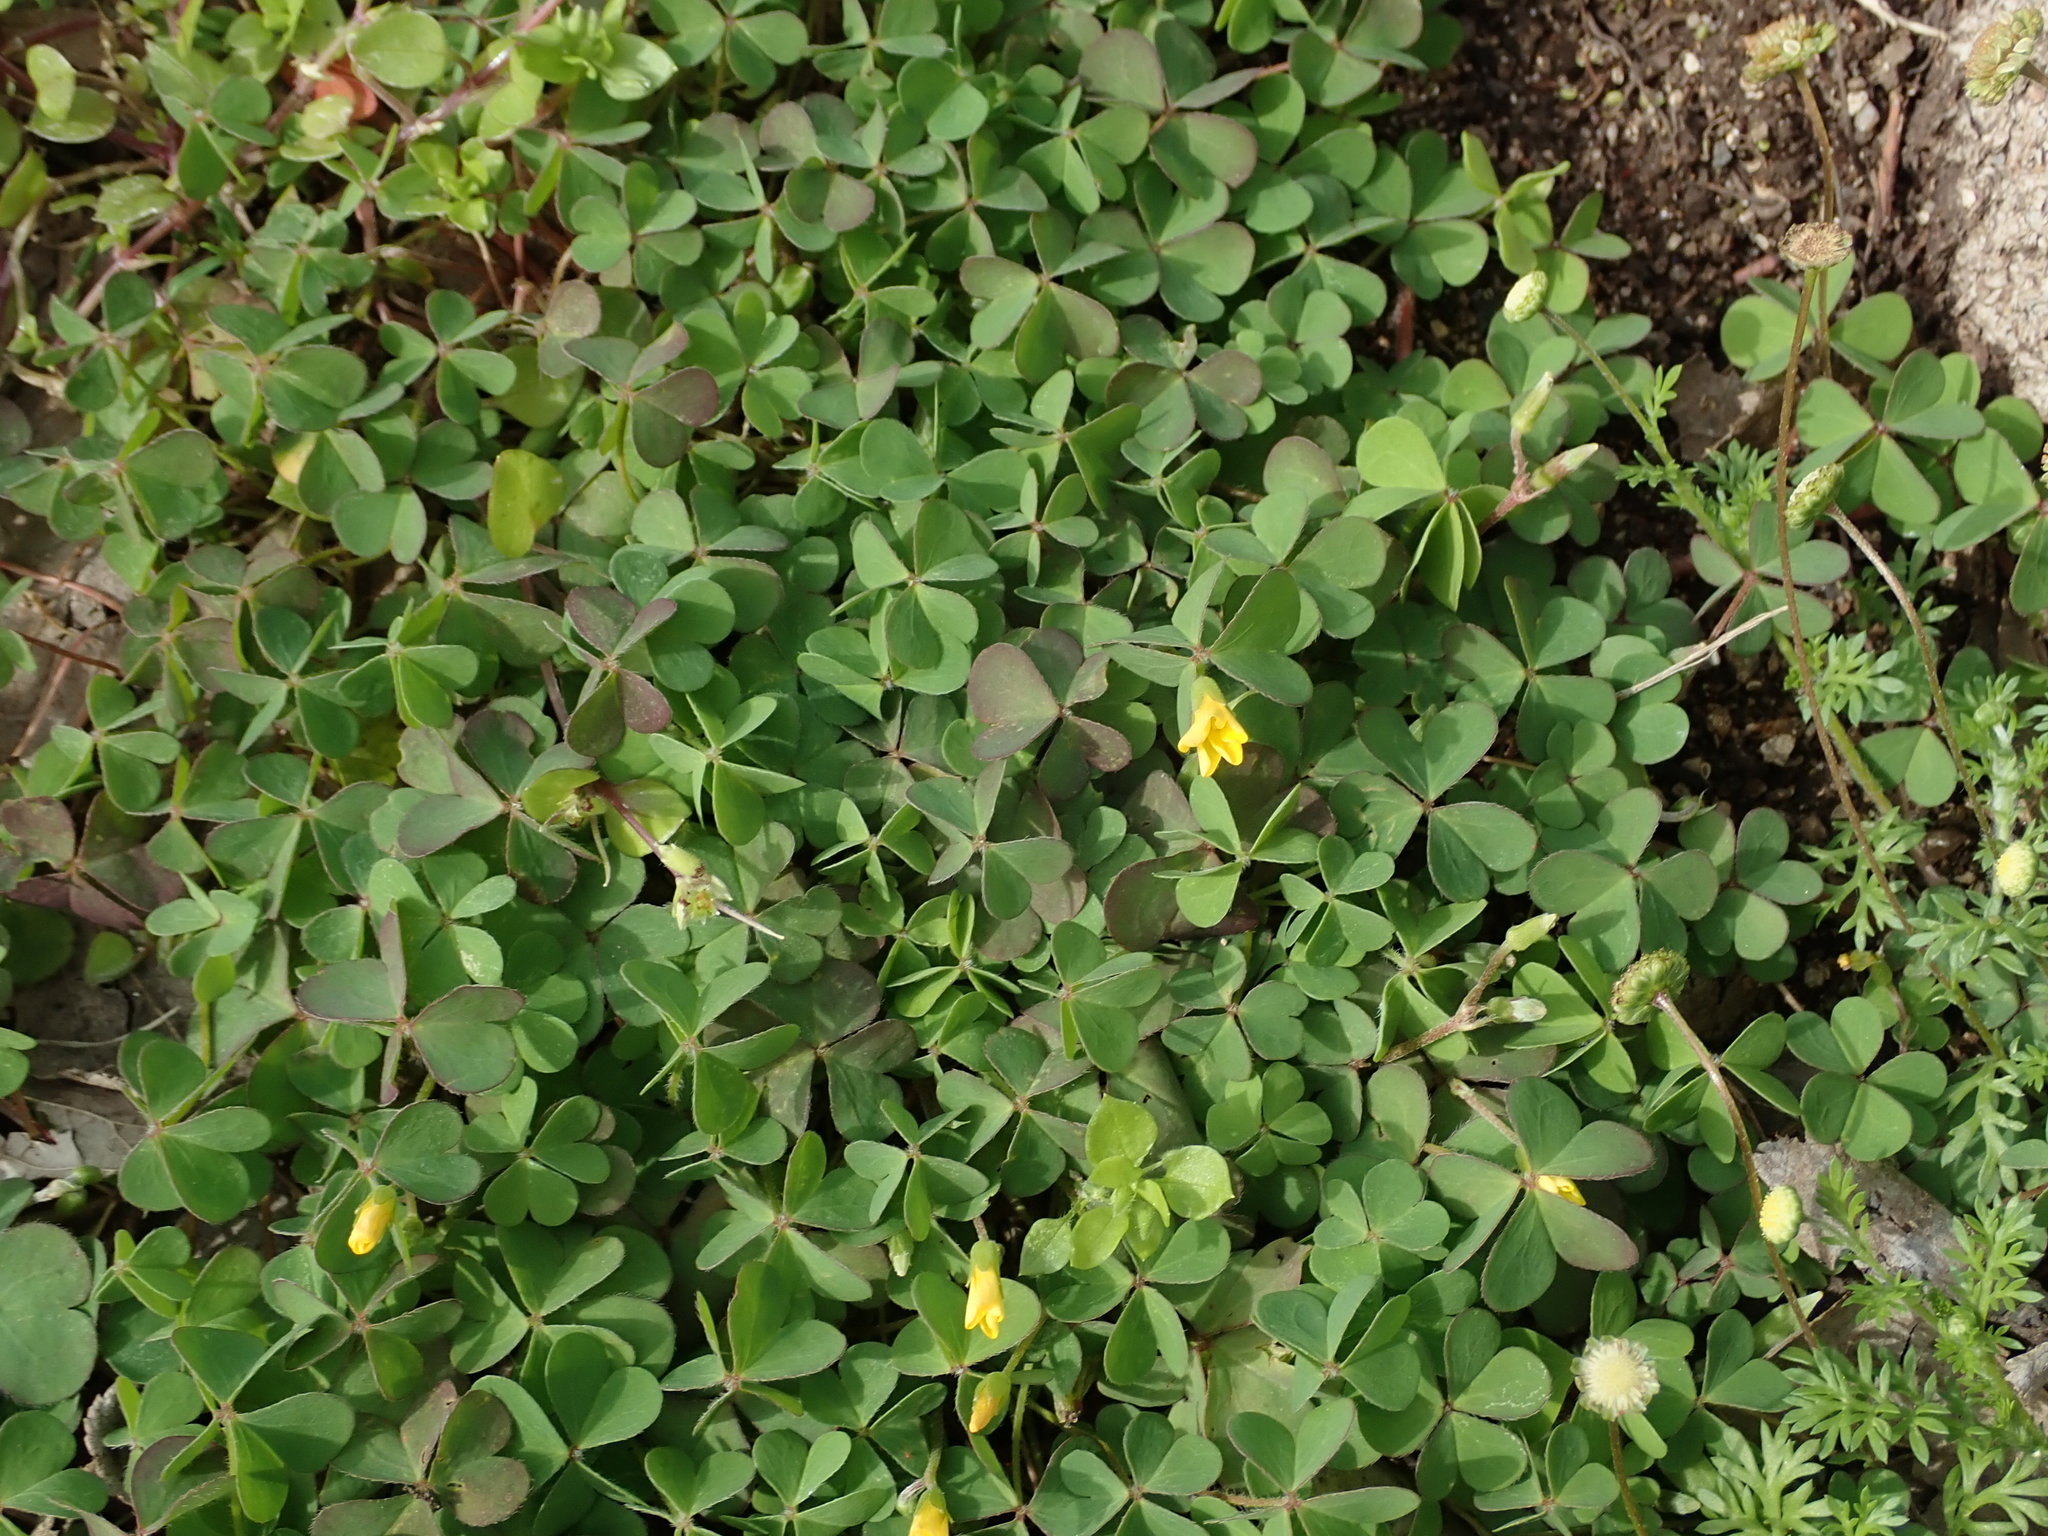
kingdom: Plantae
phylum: Tracheophyta
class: Magnoliopsida
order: Oxalidales
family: Oxalidaceae
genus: Oxalis
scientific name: Oxalis corniculata
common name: Procumbent yellow-sorrel
